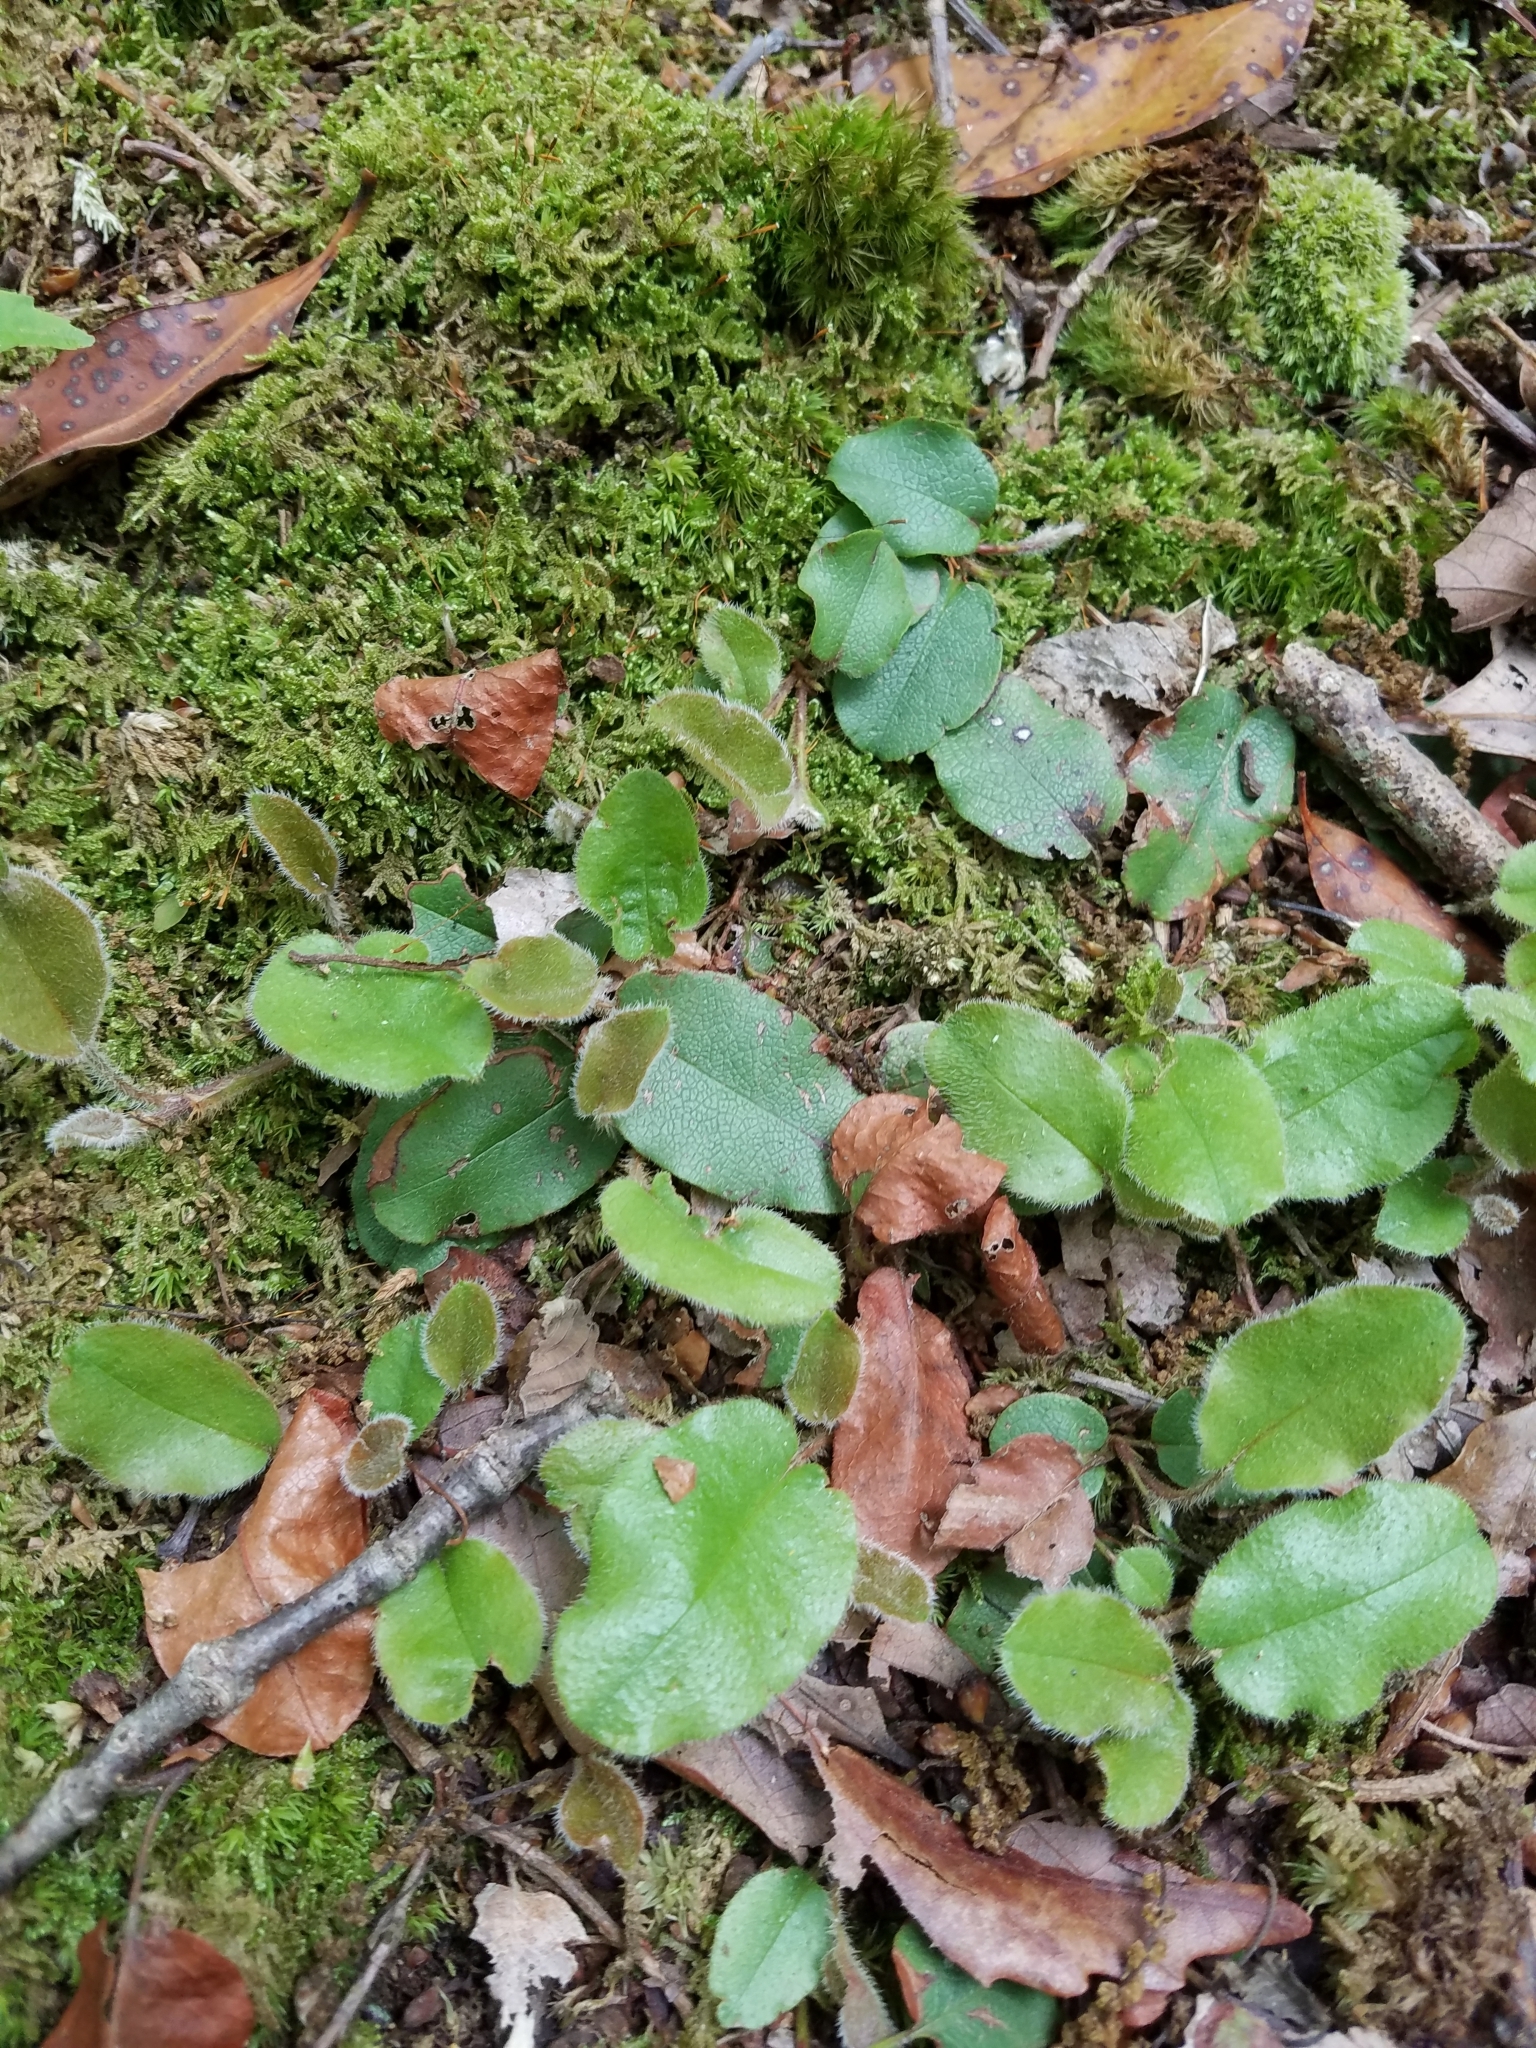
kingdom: Plantae
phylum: Tracheophyta
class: Magnoliopsida
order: Ericales
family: Ericaceae
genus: Epigaea
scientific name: Epigaea repens
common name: Gravelroot
